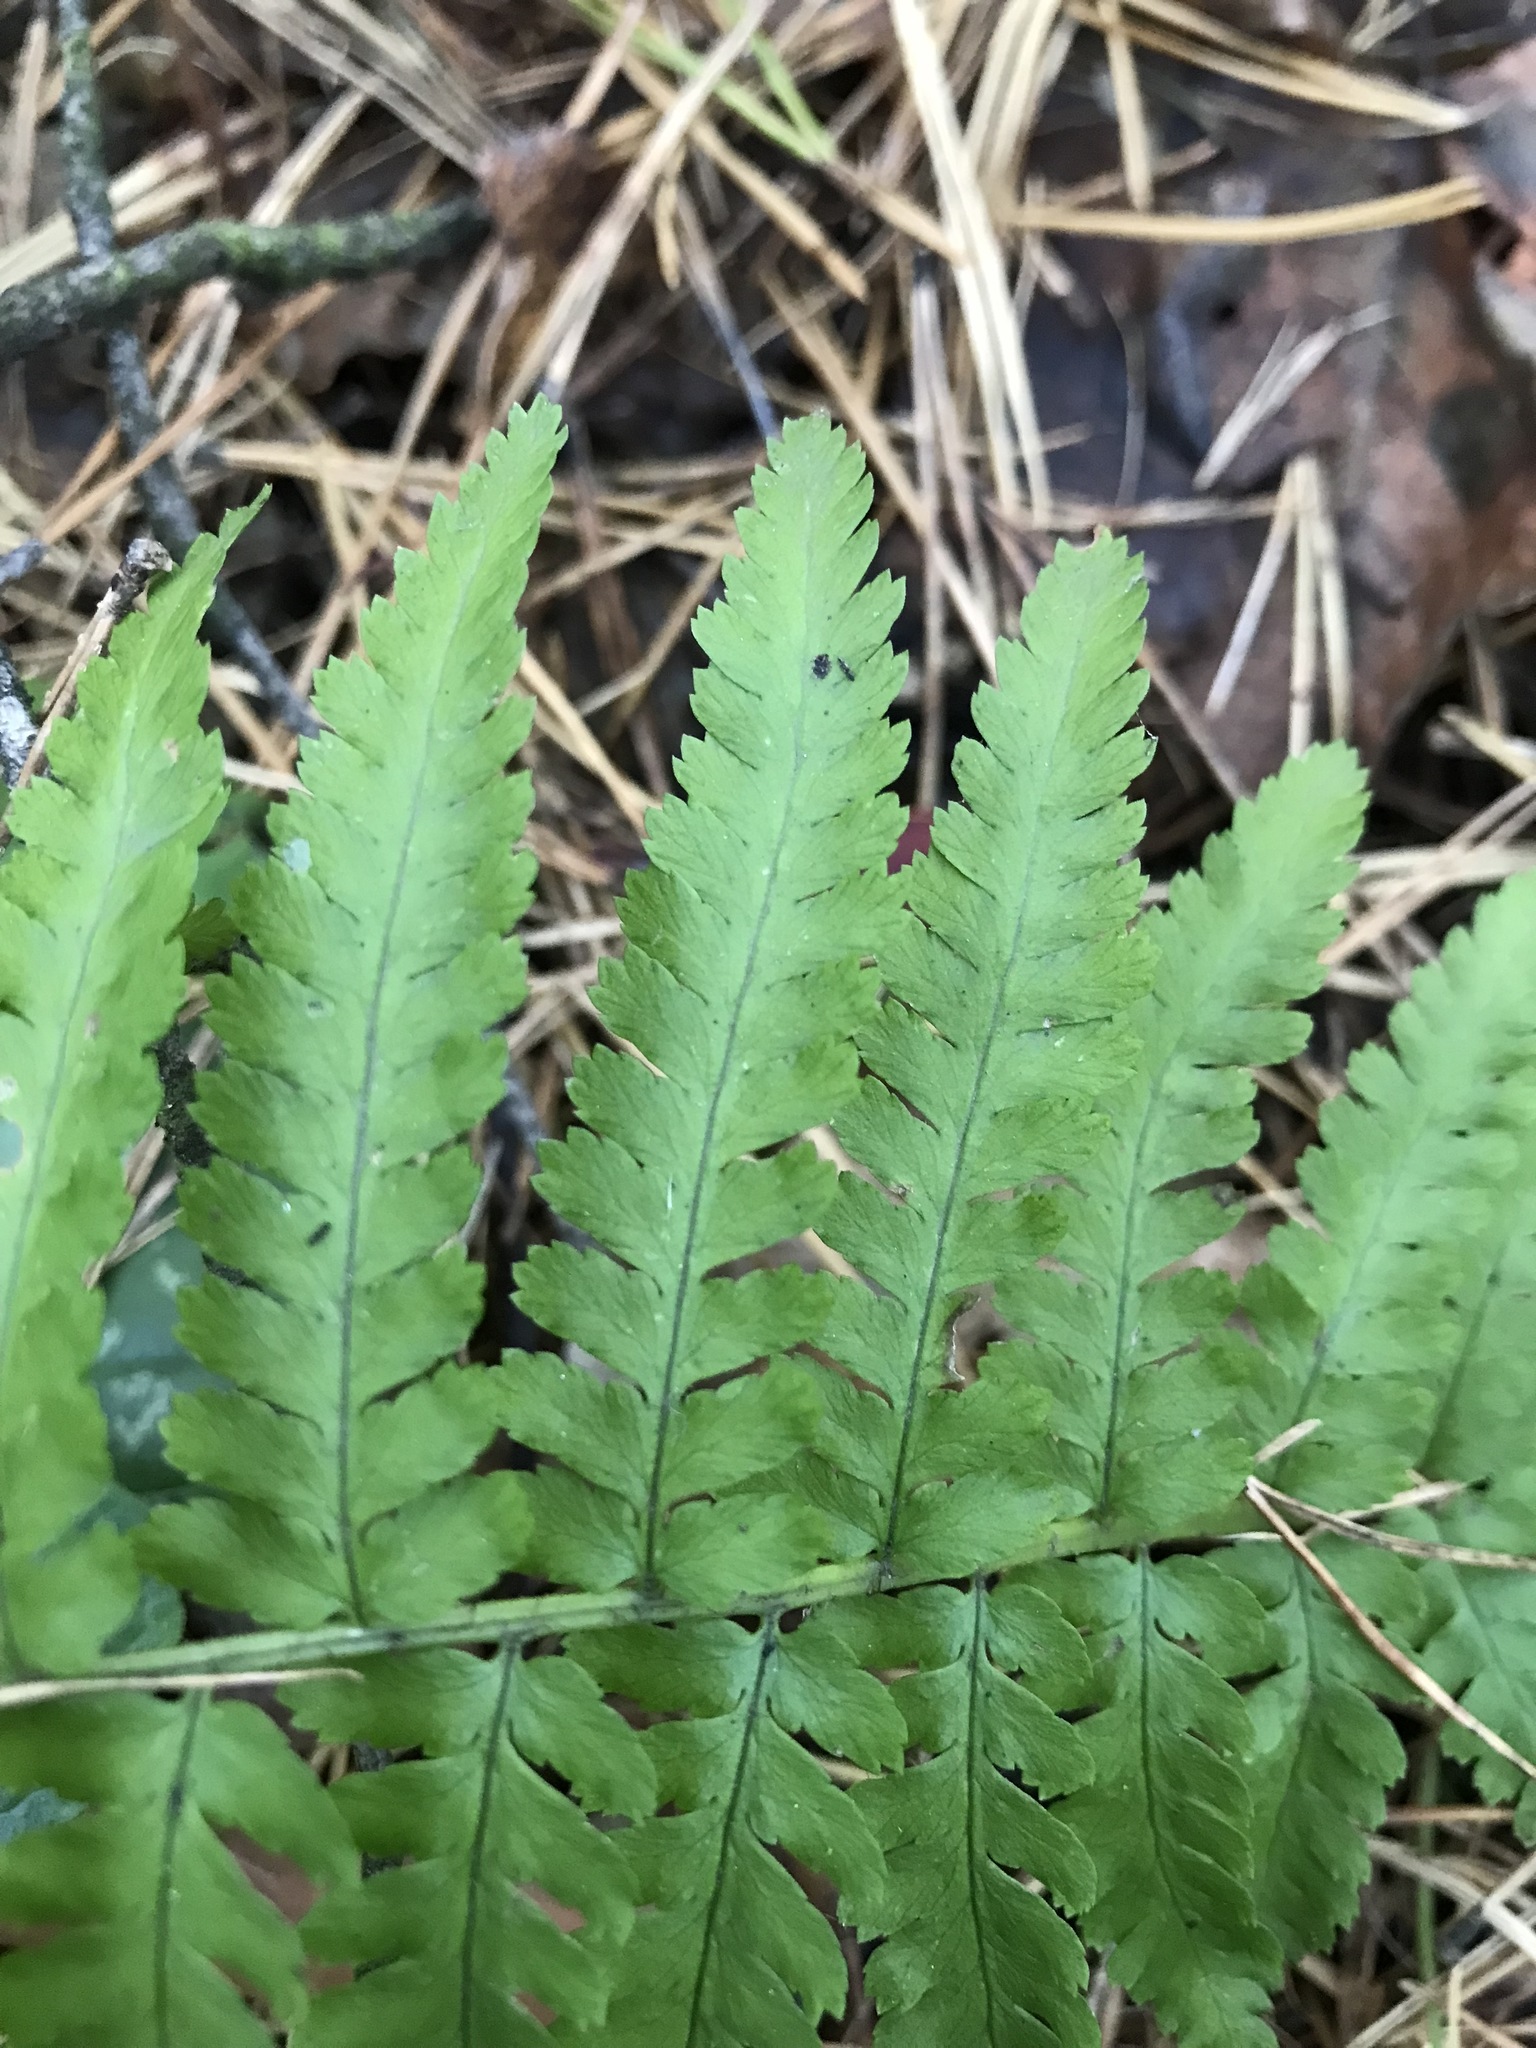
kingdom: Plantae
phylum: Tracheophyta
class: Polypodiopsida
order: Polypodiales
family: Dryopteridaceae
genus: Dryopteris
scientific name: Dryopteris filix-mas
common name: Male fern
